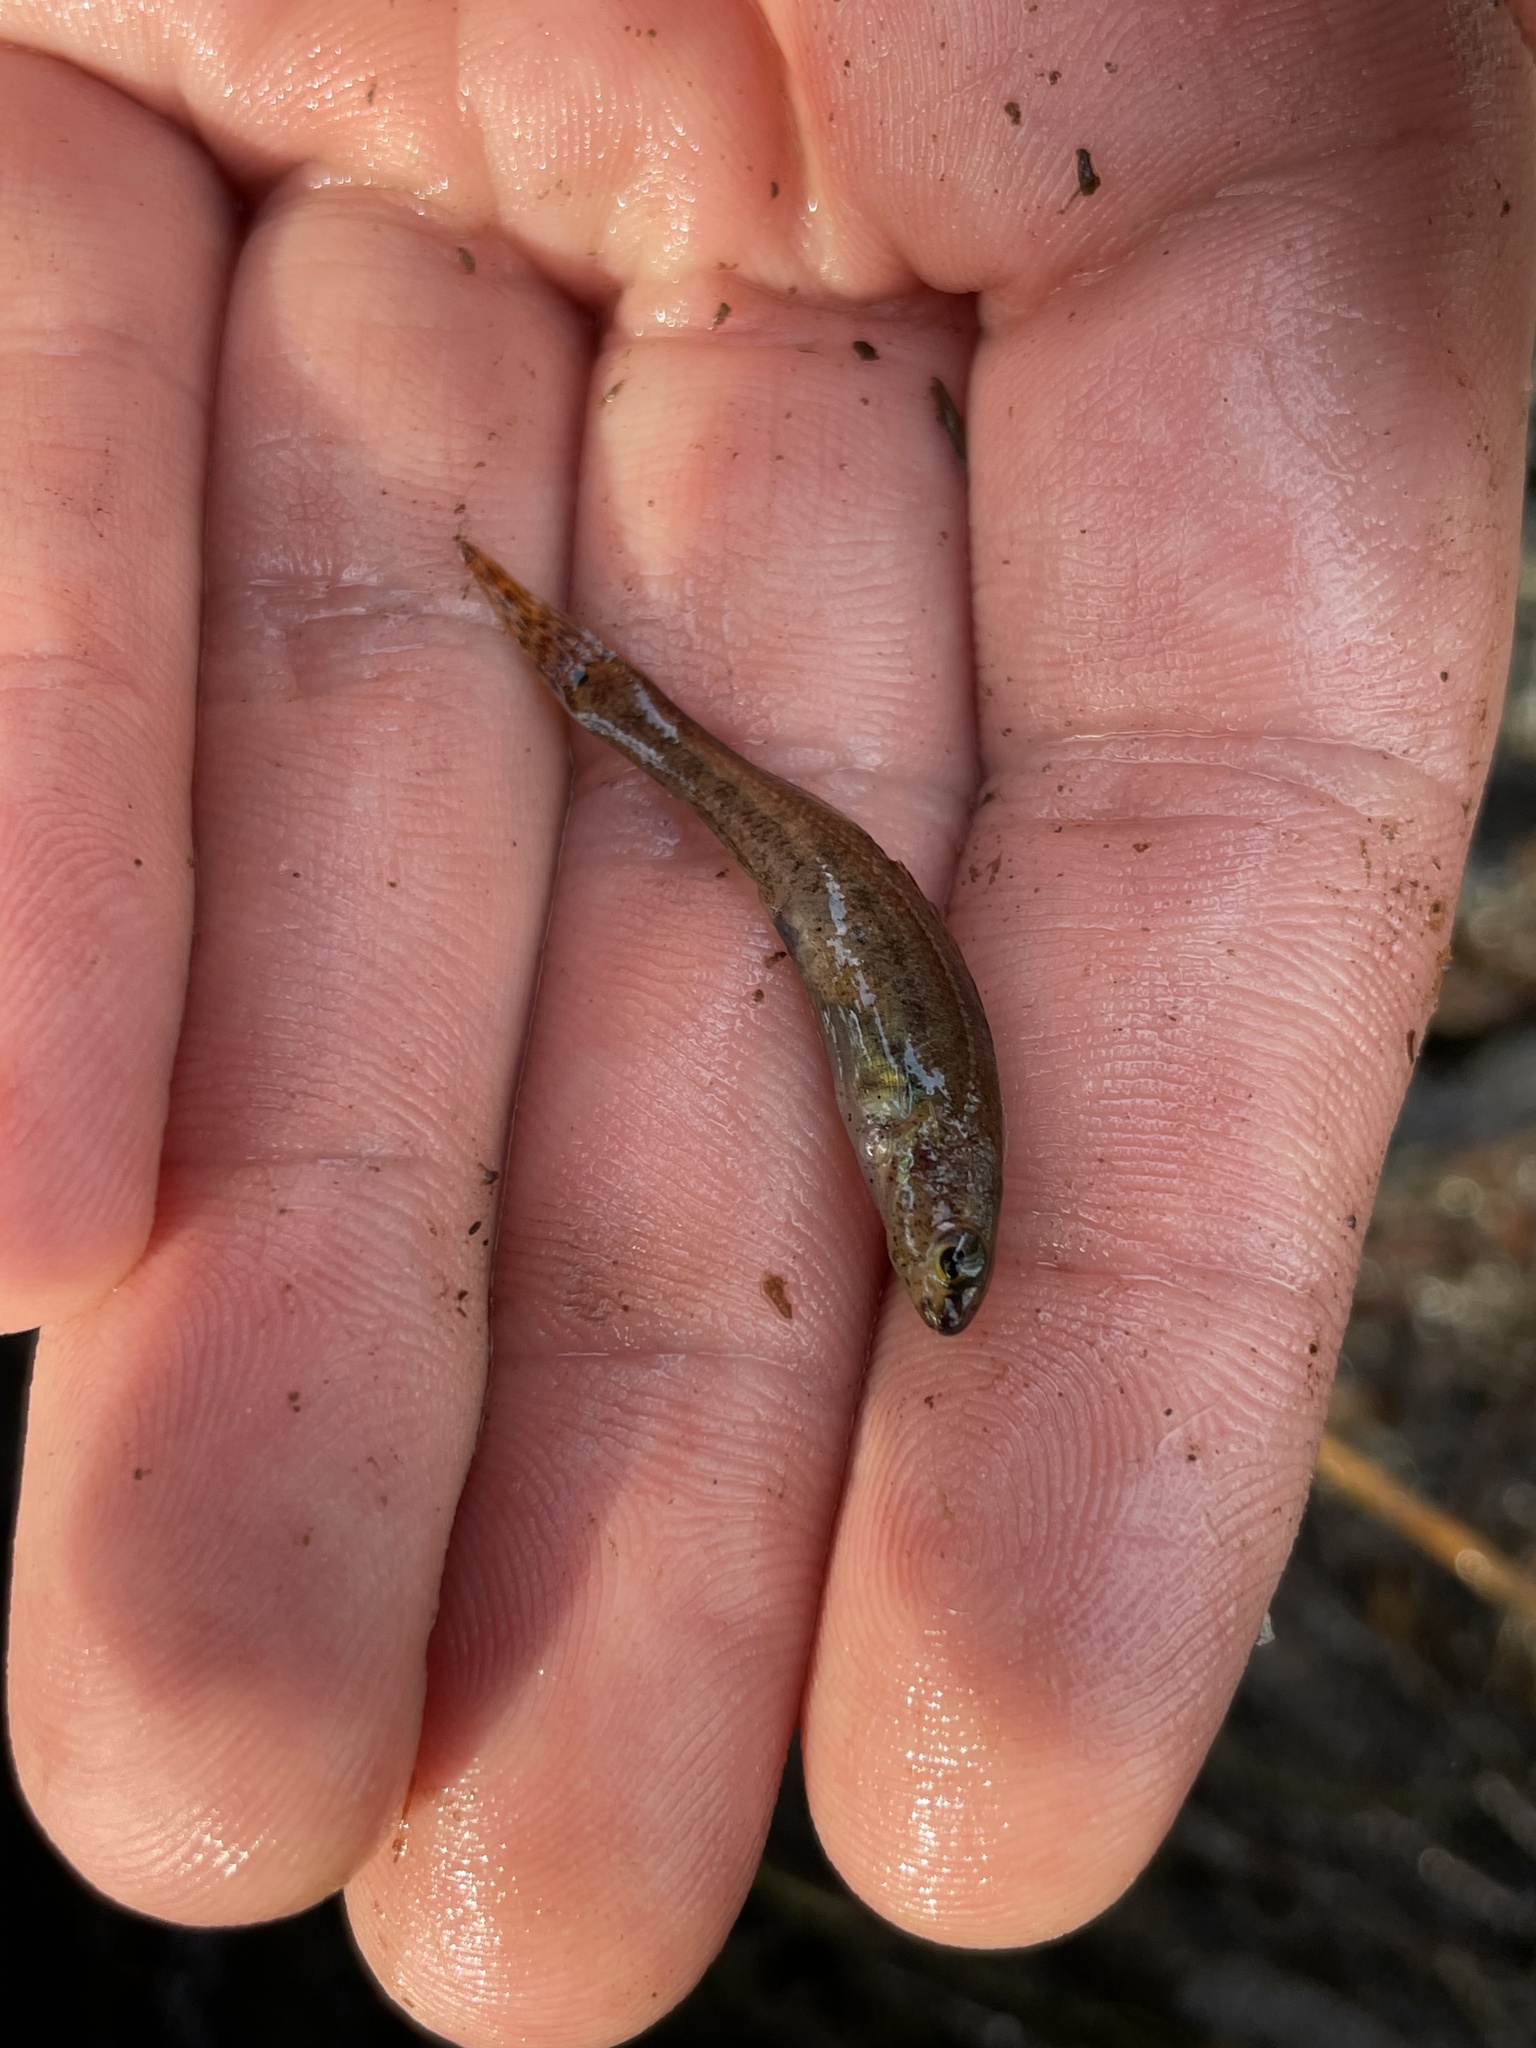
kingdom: Animalia
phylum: Chordata
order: Perciformes
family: Percidae
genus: Etheostoma
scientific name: Etheostoma serrifer
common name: Sawcheek darter
